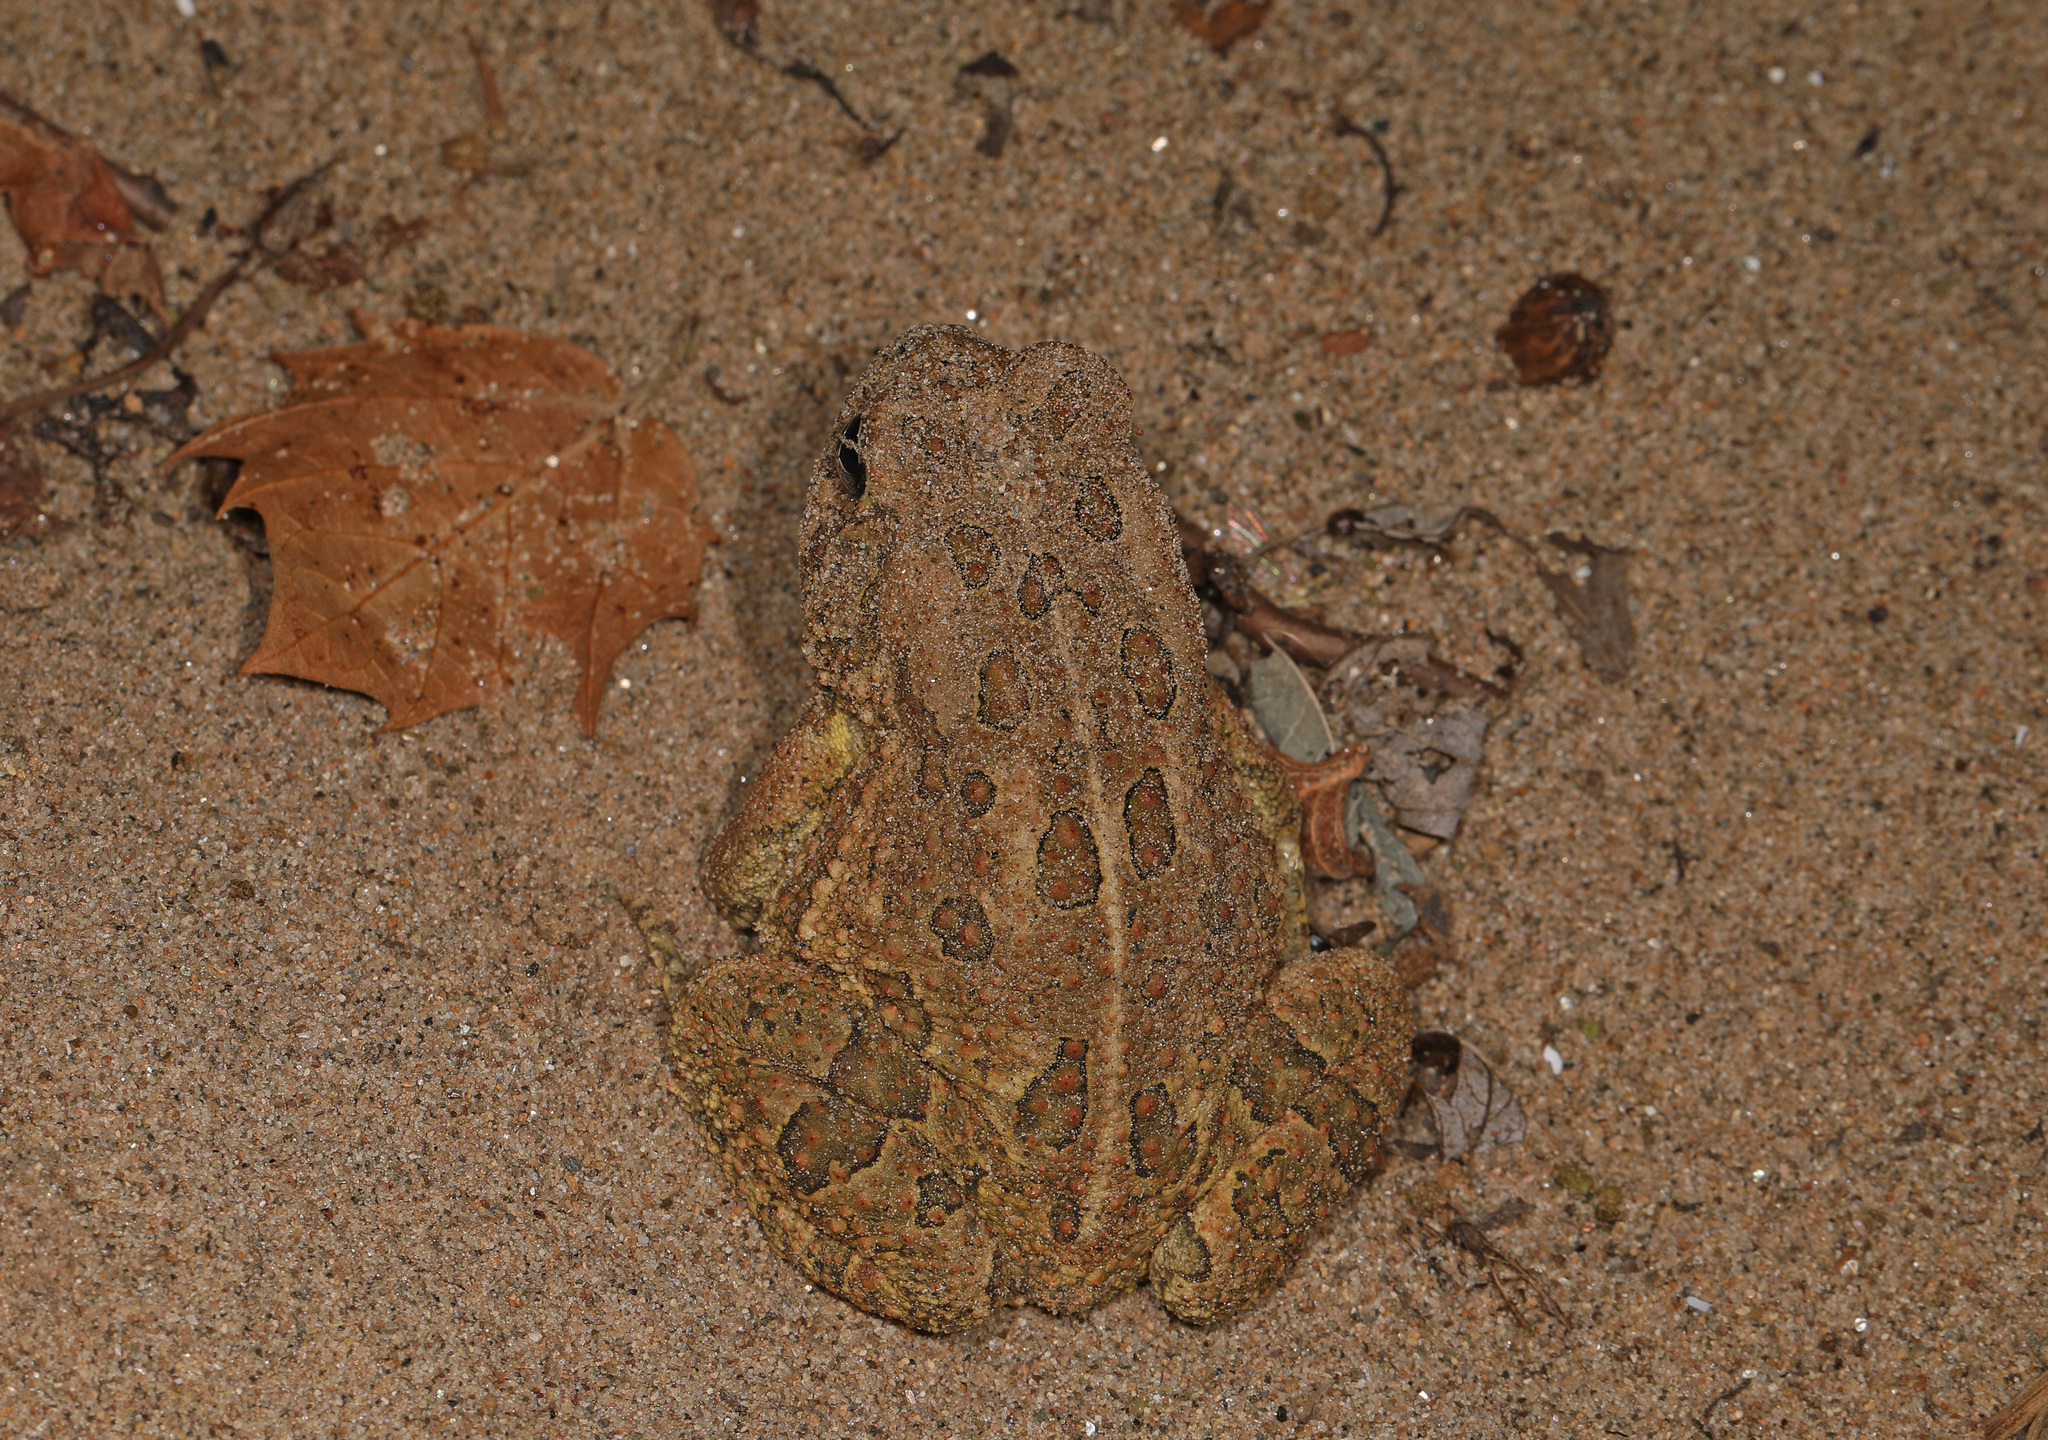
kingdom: Animalia
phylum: Chordata
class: Amphibia
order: Anura
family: Bufonidae
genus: Anaxyrus
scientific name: Anaxyrus fowleri
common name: Fowler's toad
